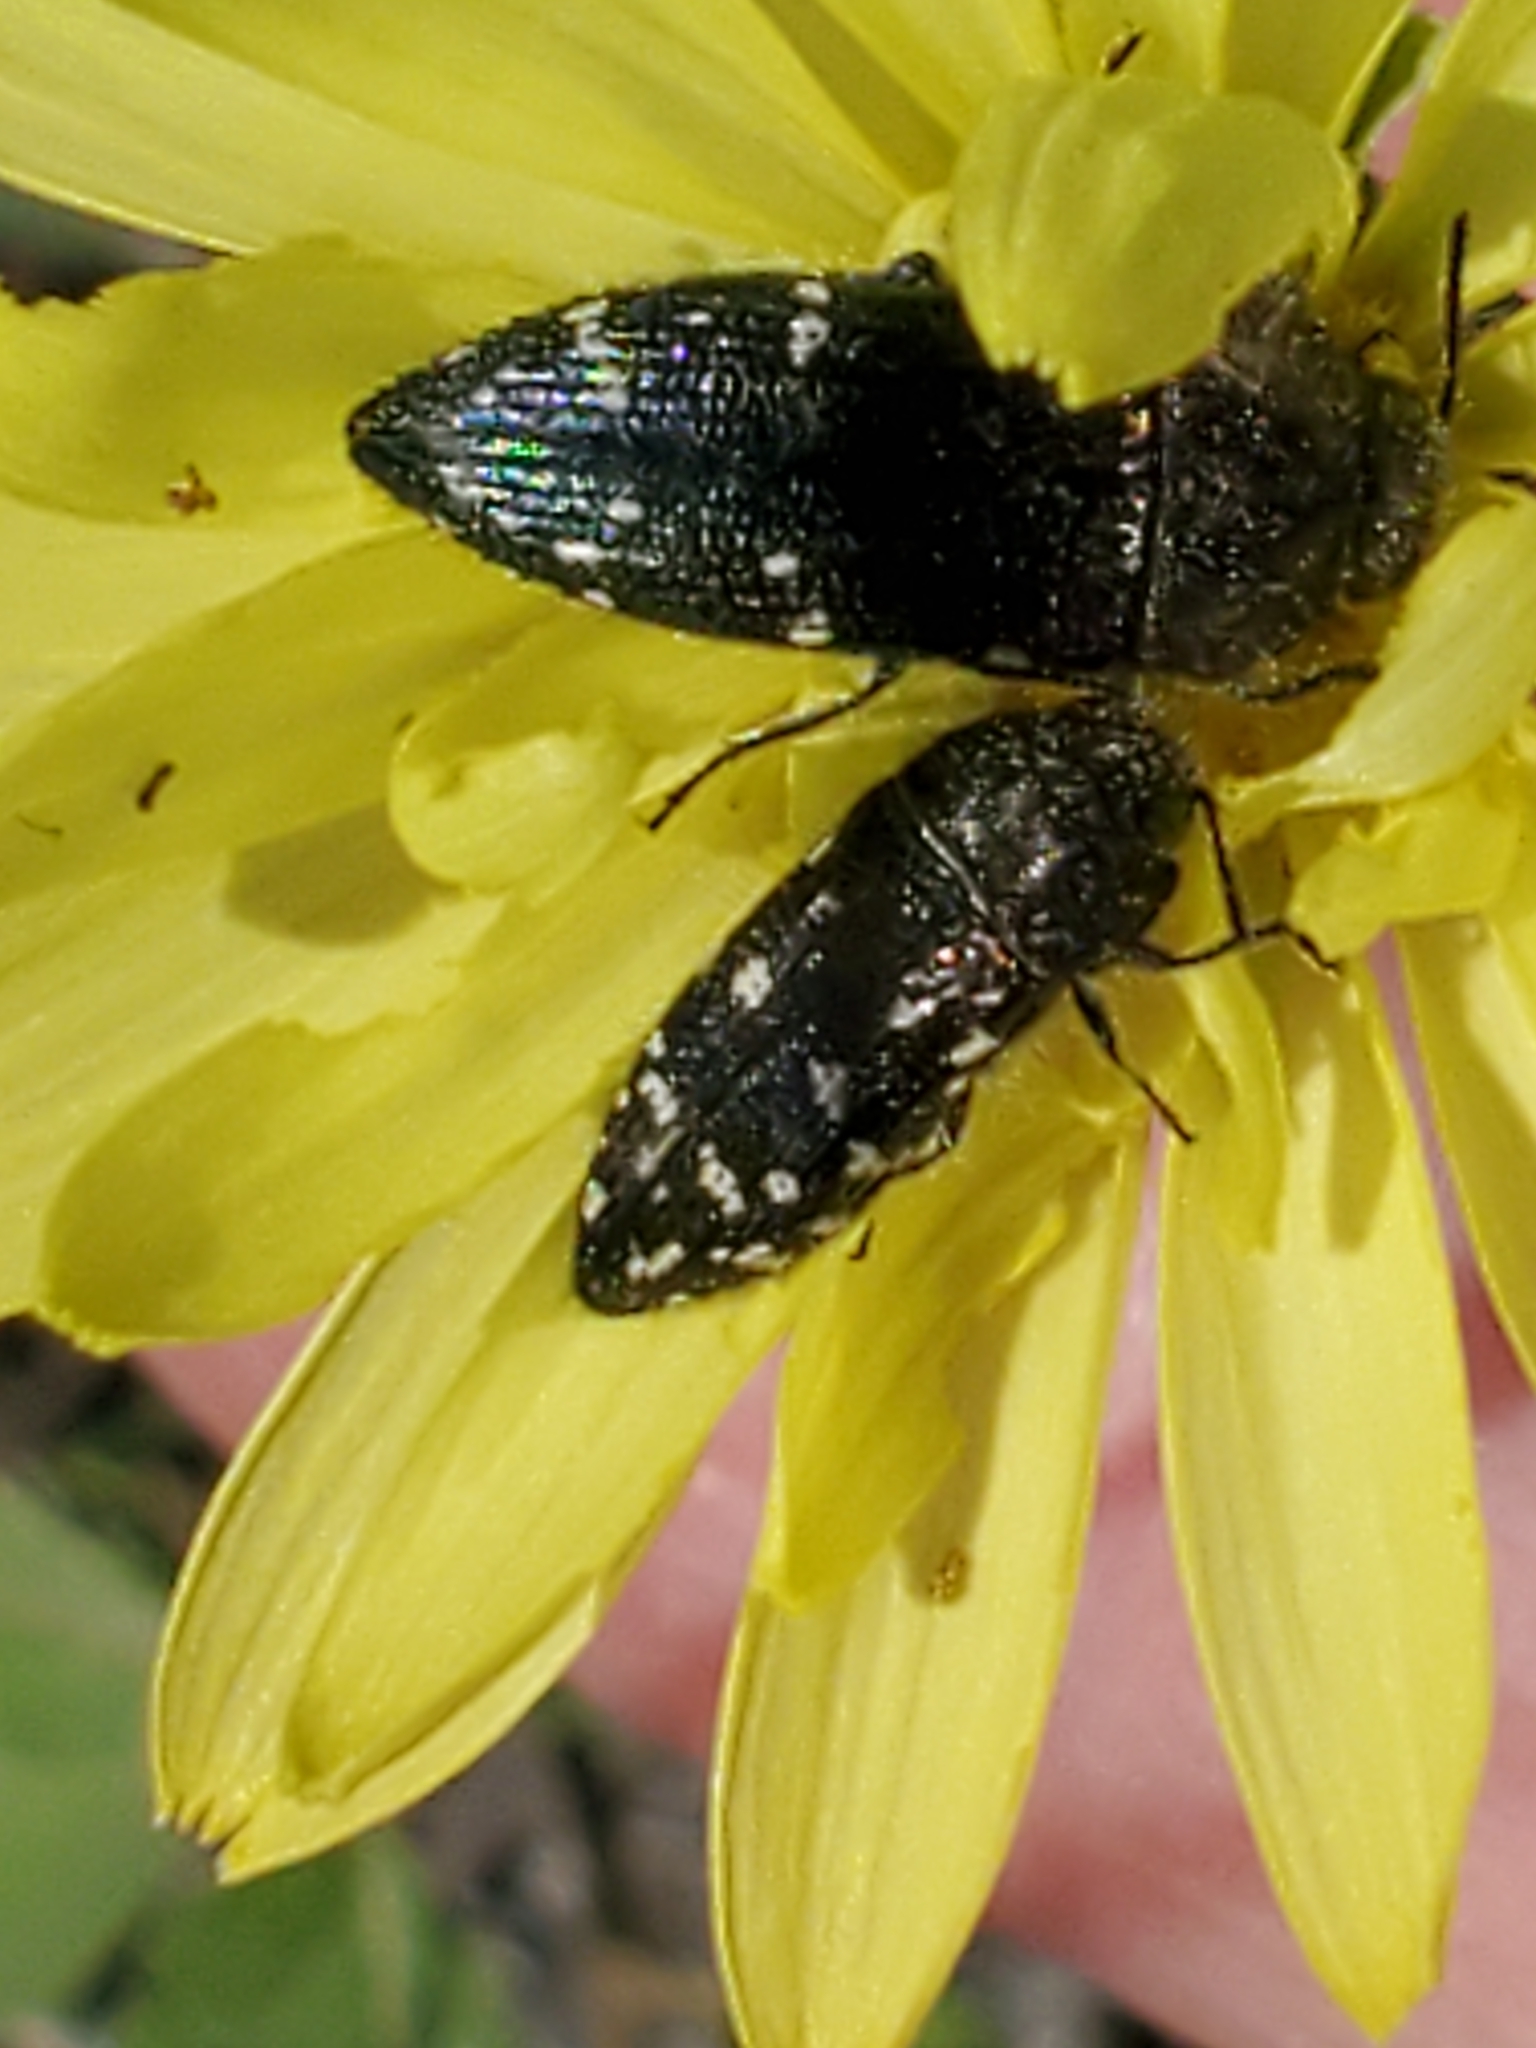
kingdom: Animalia
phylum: Arthropoda
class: Insecta
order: Coleoptera
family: Buprestidae
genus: Acmaeodera
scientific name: Acmaeodera ornatoides
